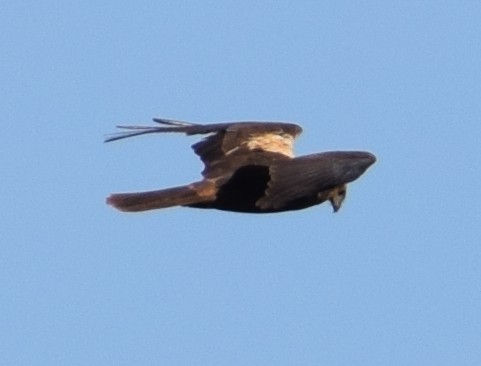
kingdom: Animalia
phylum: Chordata
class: Aves
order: Accipitriformes
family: Accipitridae
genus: Circus
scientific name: Circus aeruginosus
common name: Western marsh harrier
